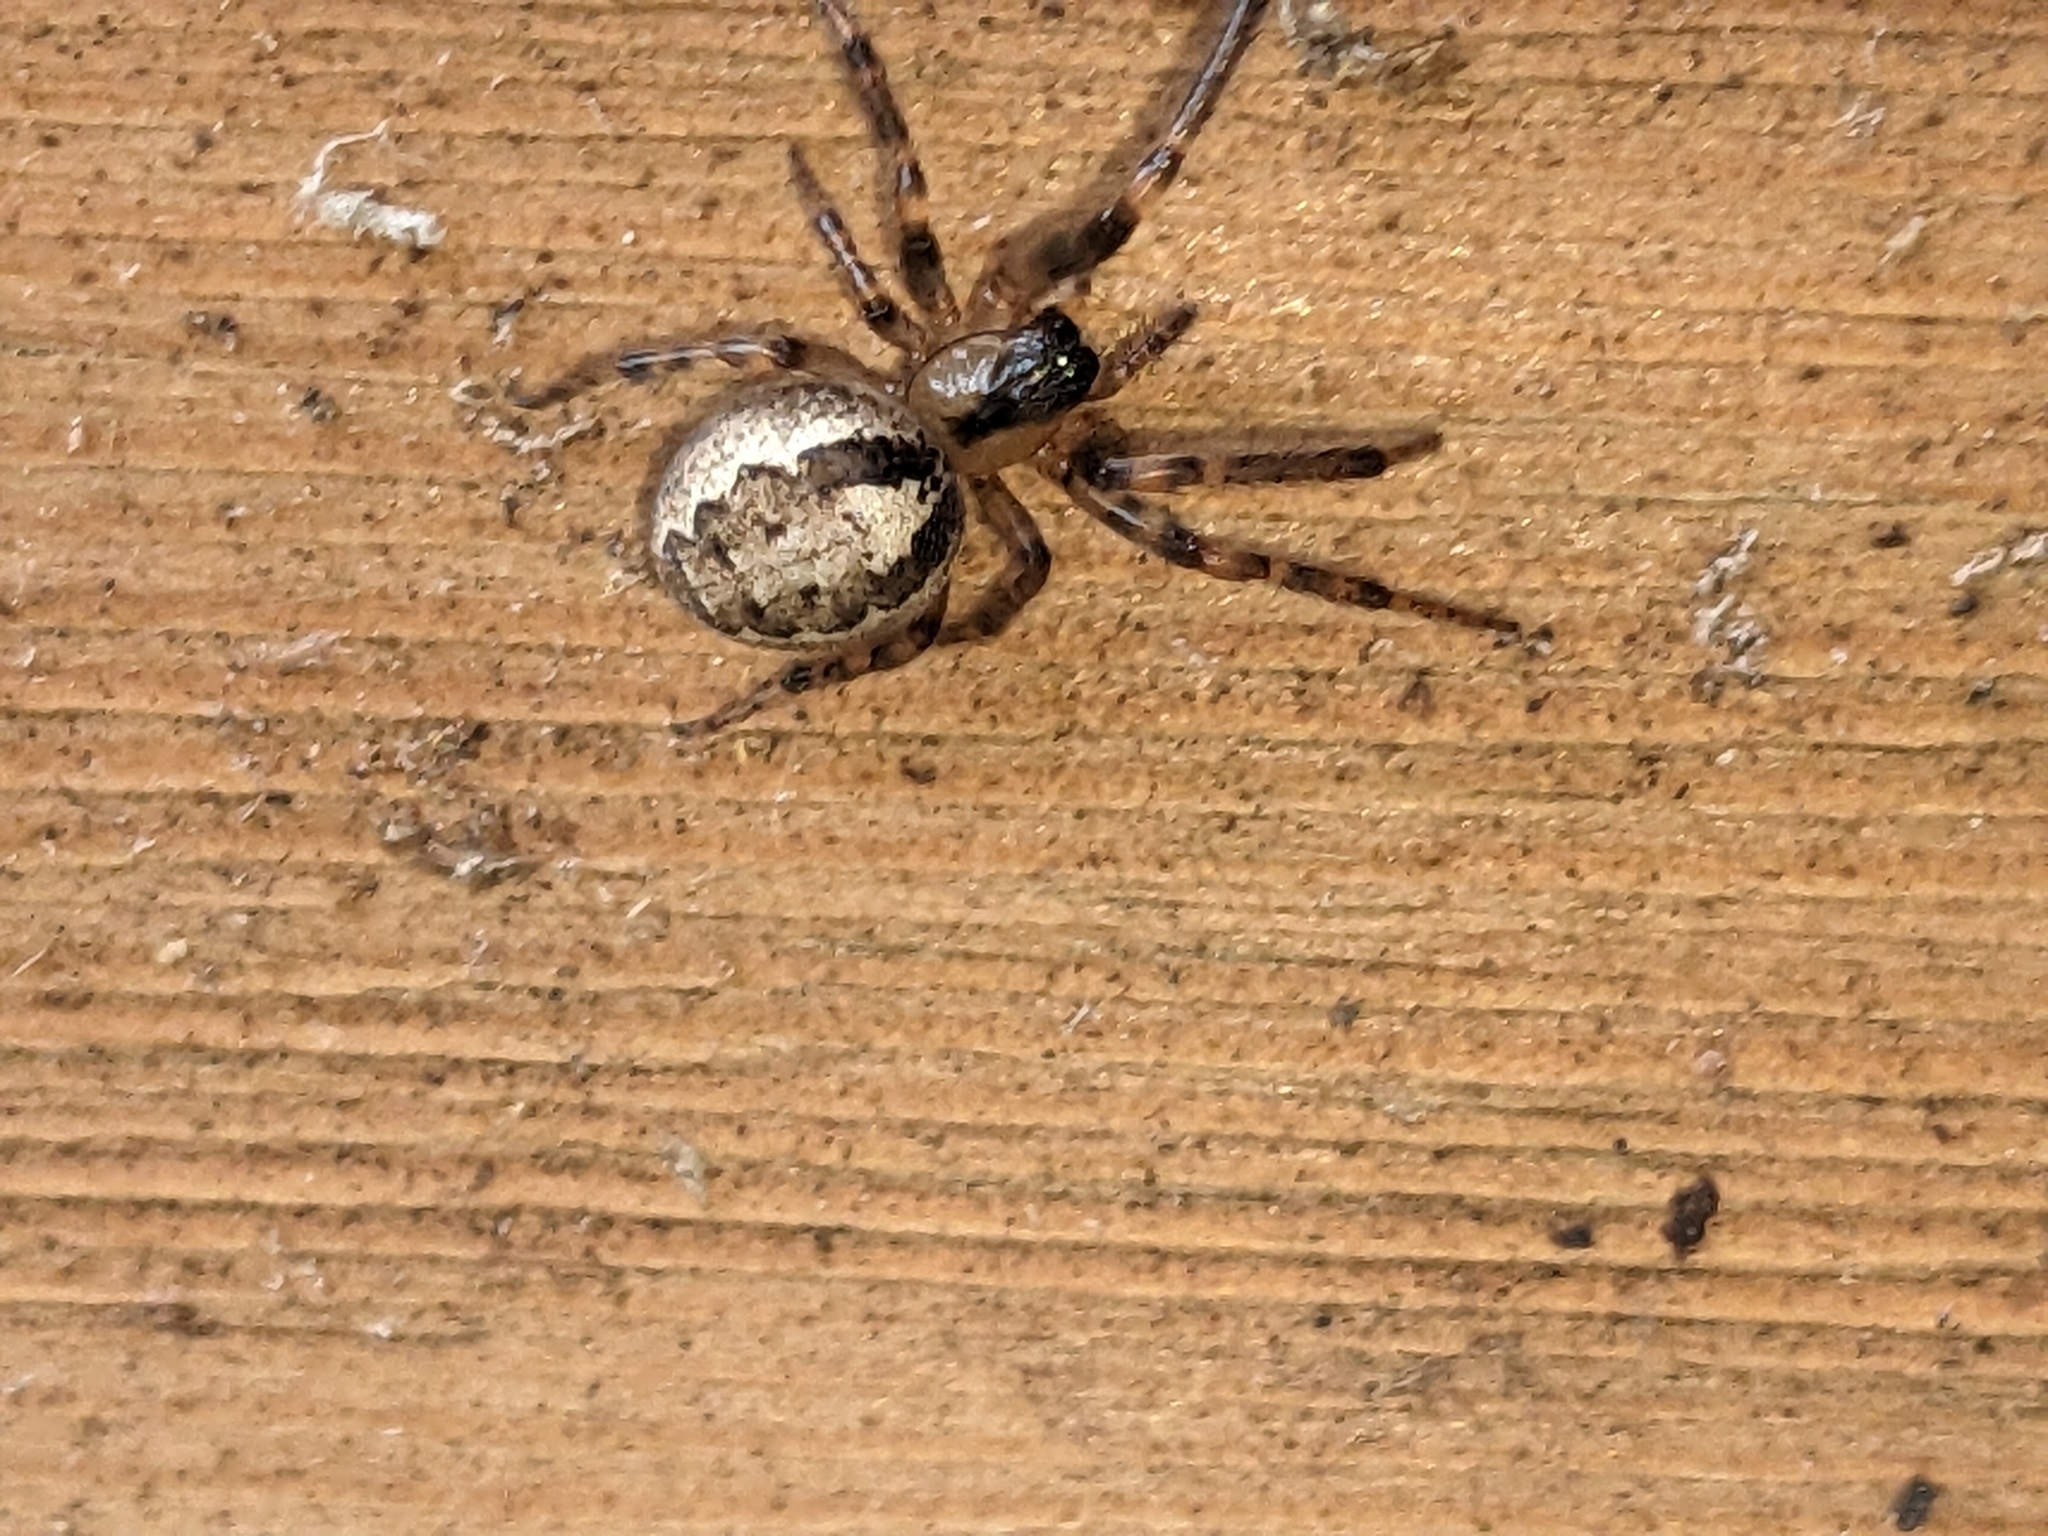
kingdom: Animalia
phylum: Arthropoda
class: Arachnida
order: Araneae
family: Araneidae
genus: Zygiella
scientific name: Zygiella x-notata
